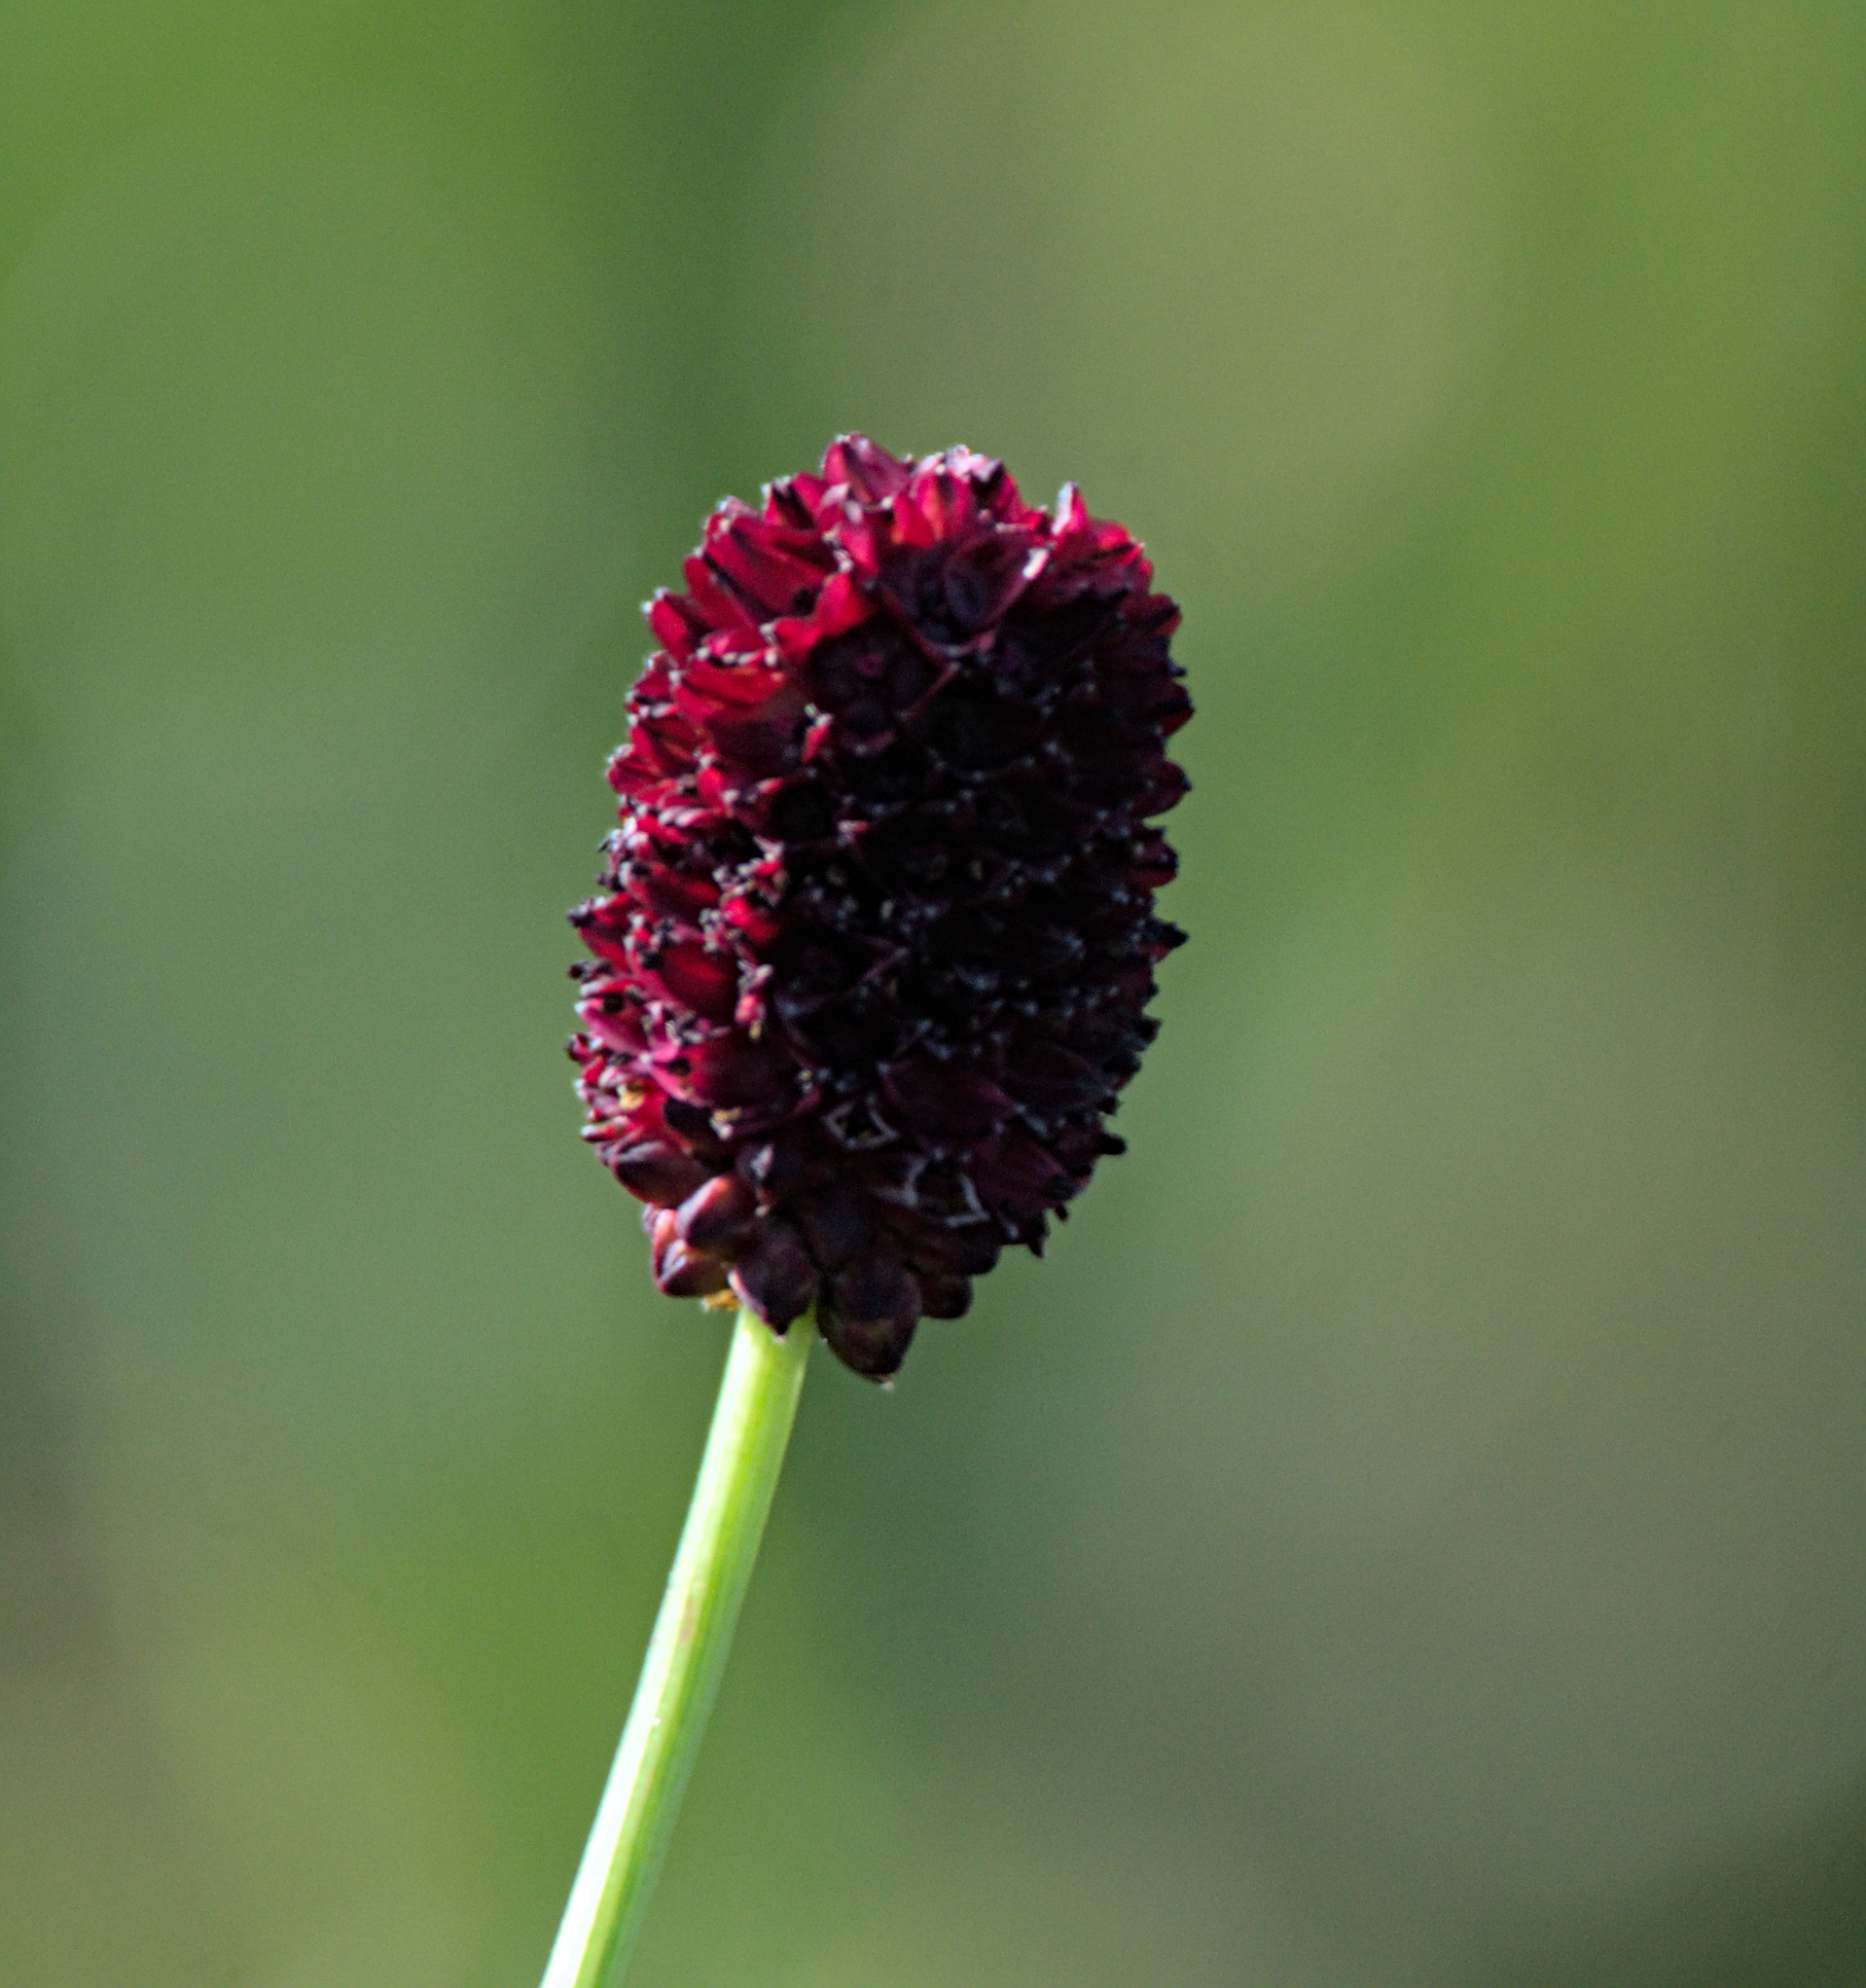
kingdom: Plantae
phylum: Tracheophyta
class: Magnoliopsida
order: Rosales
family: Rosaceae
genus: Sanguisorba
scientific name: Sanguisorba officinalis
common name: Great burnet
